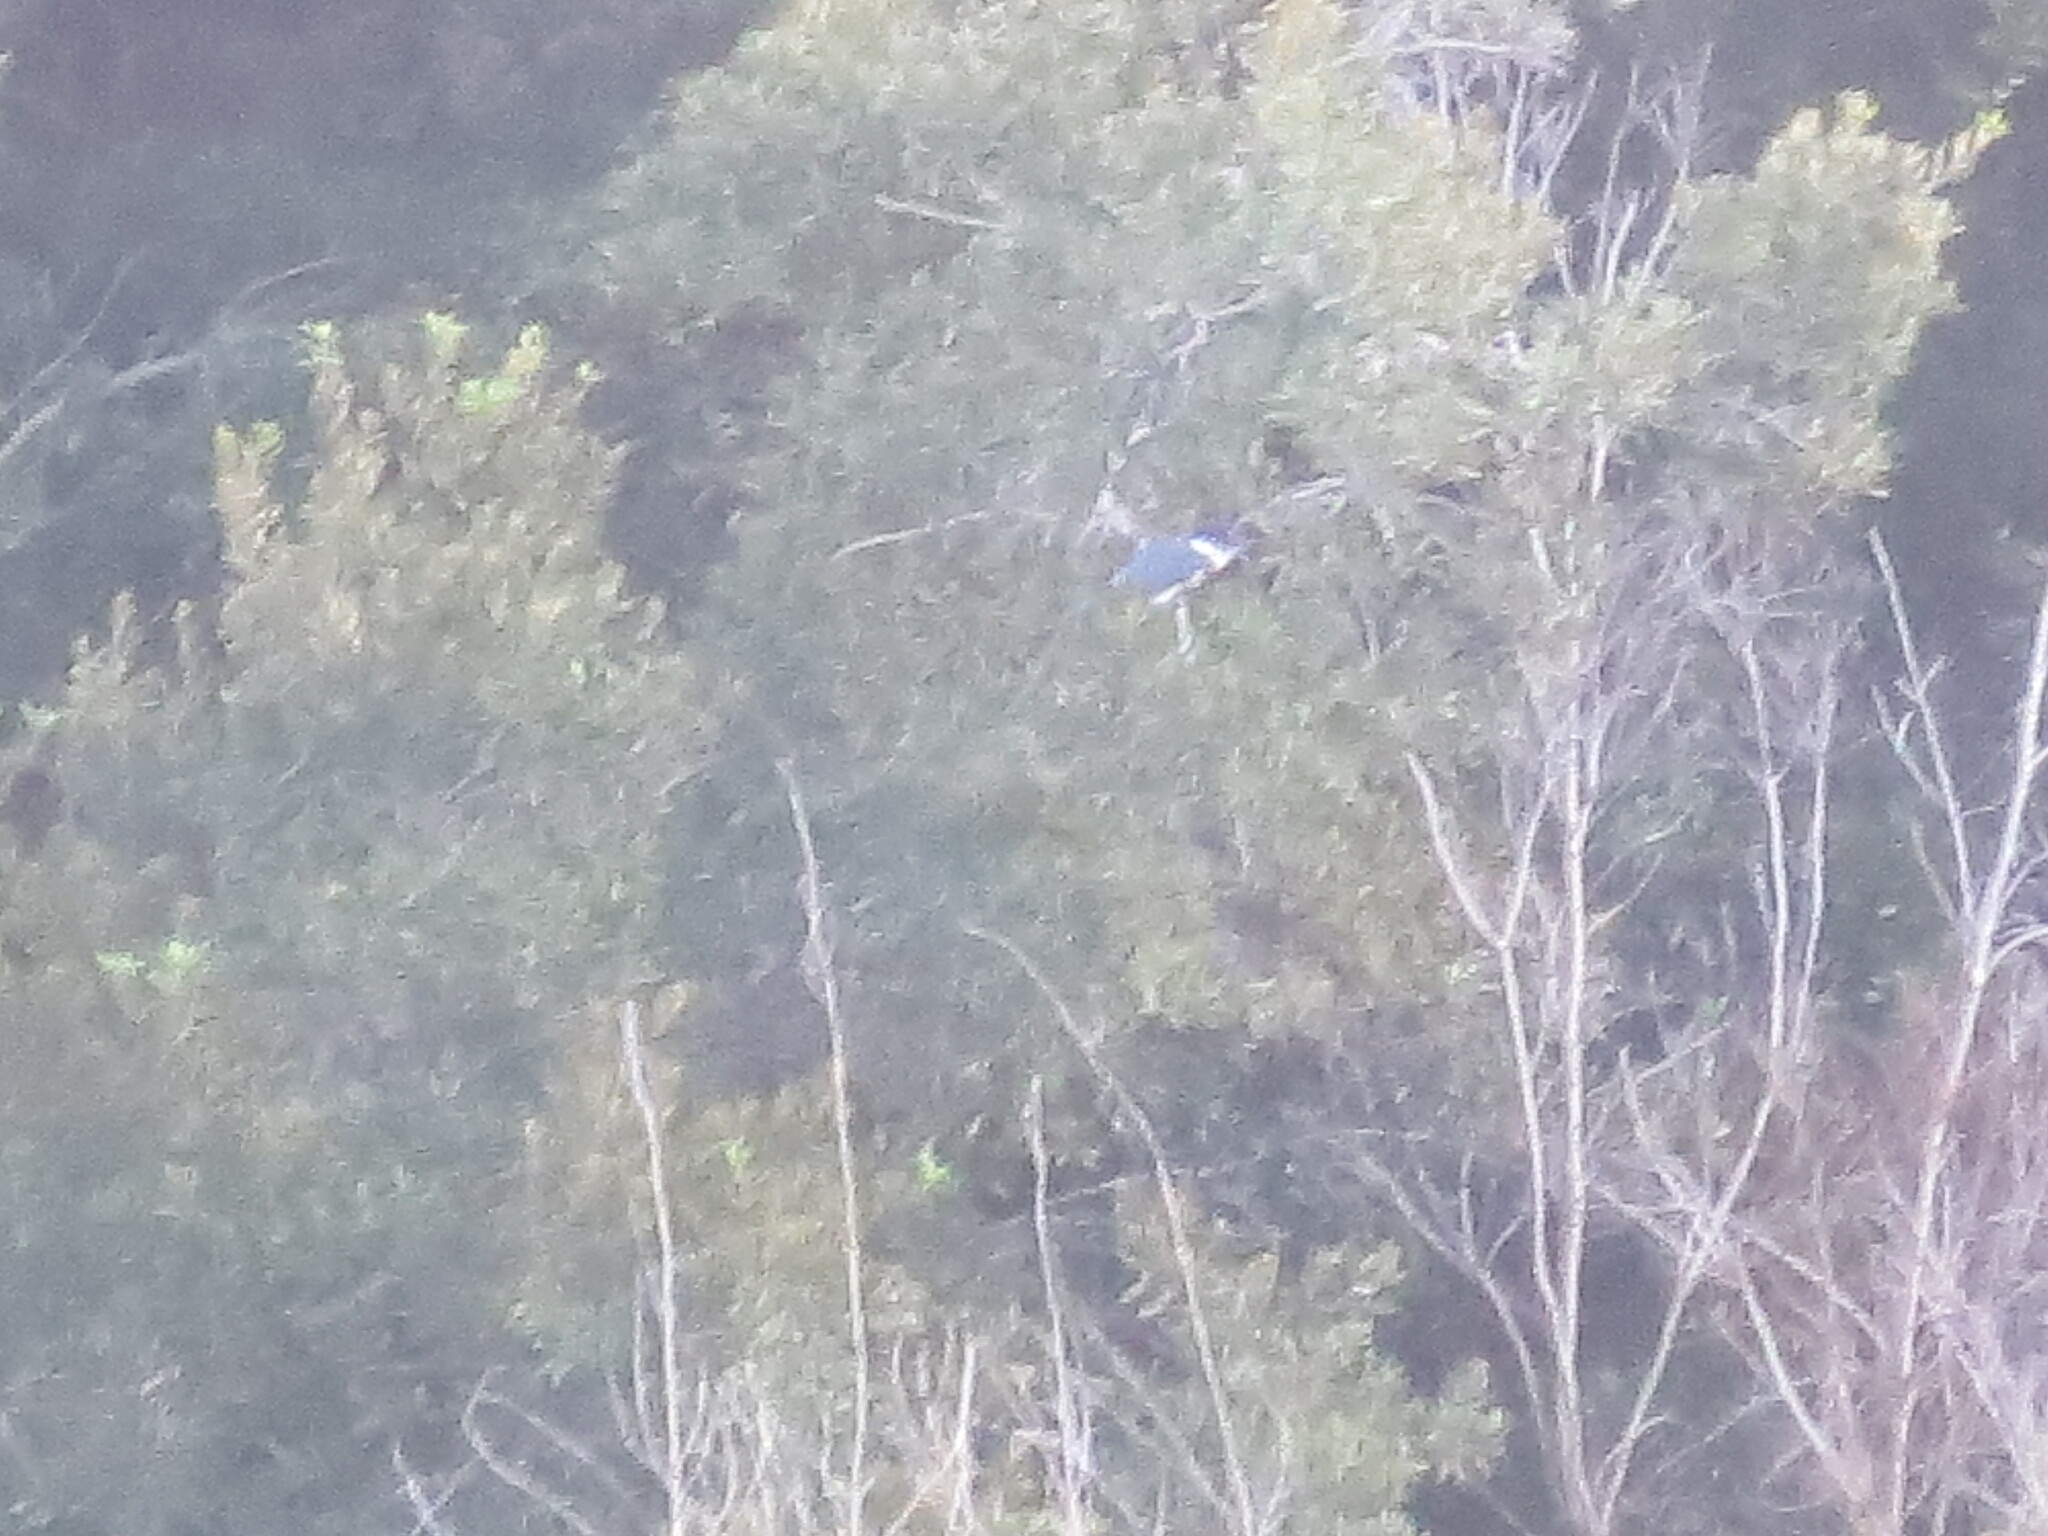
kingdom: Animalia
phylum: Chordata
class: Aves
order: Coraciiformes
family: Alcedinidae
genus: Megaceryle
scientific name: Megaceryle alcyon
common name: Belted kingfisher
